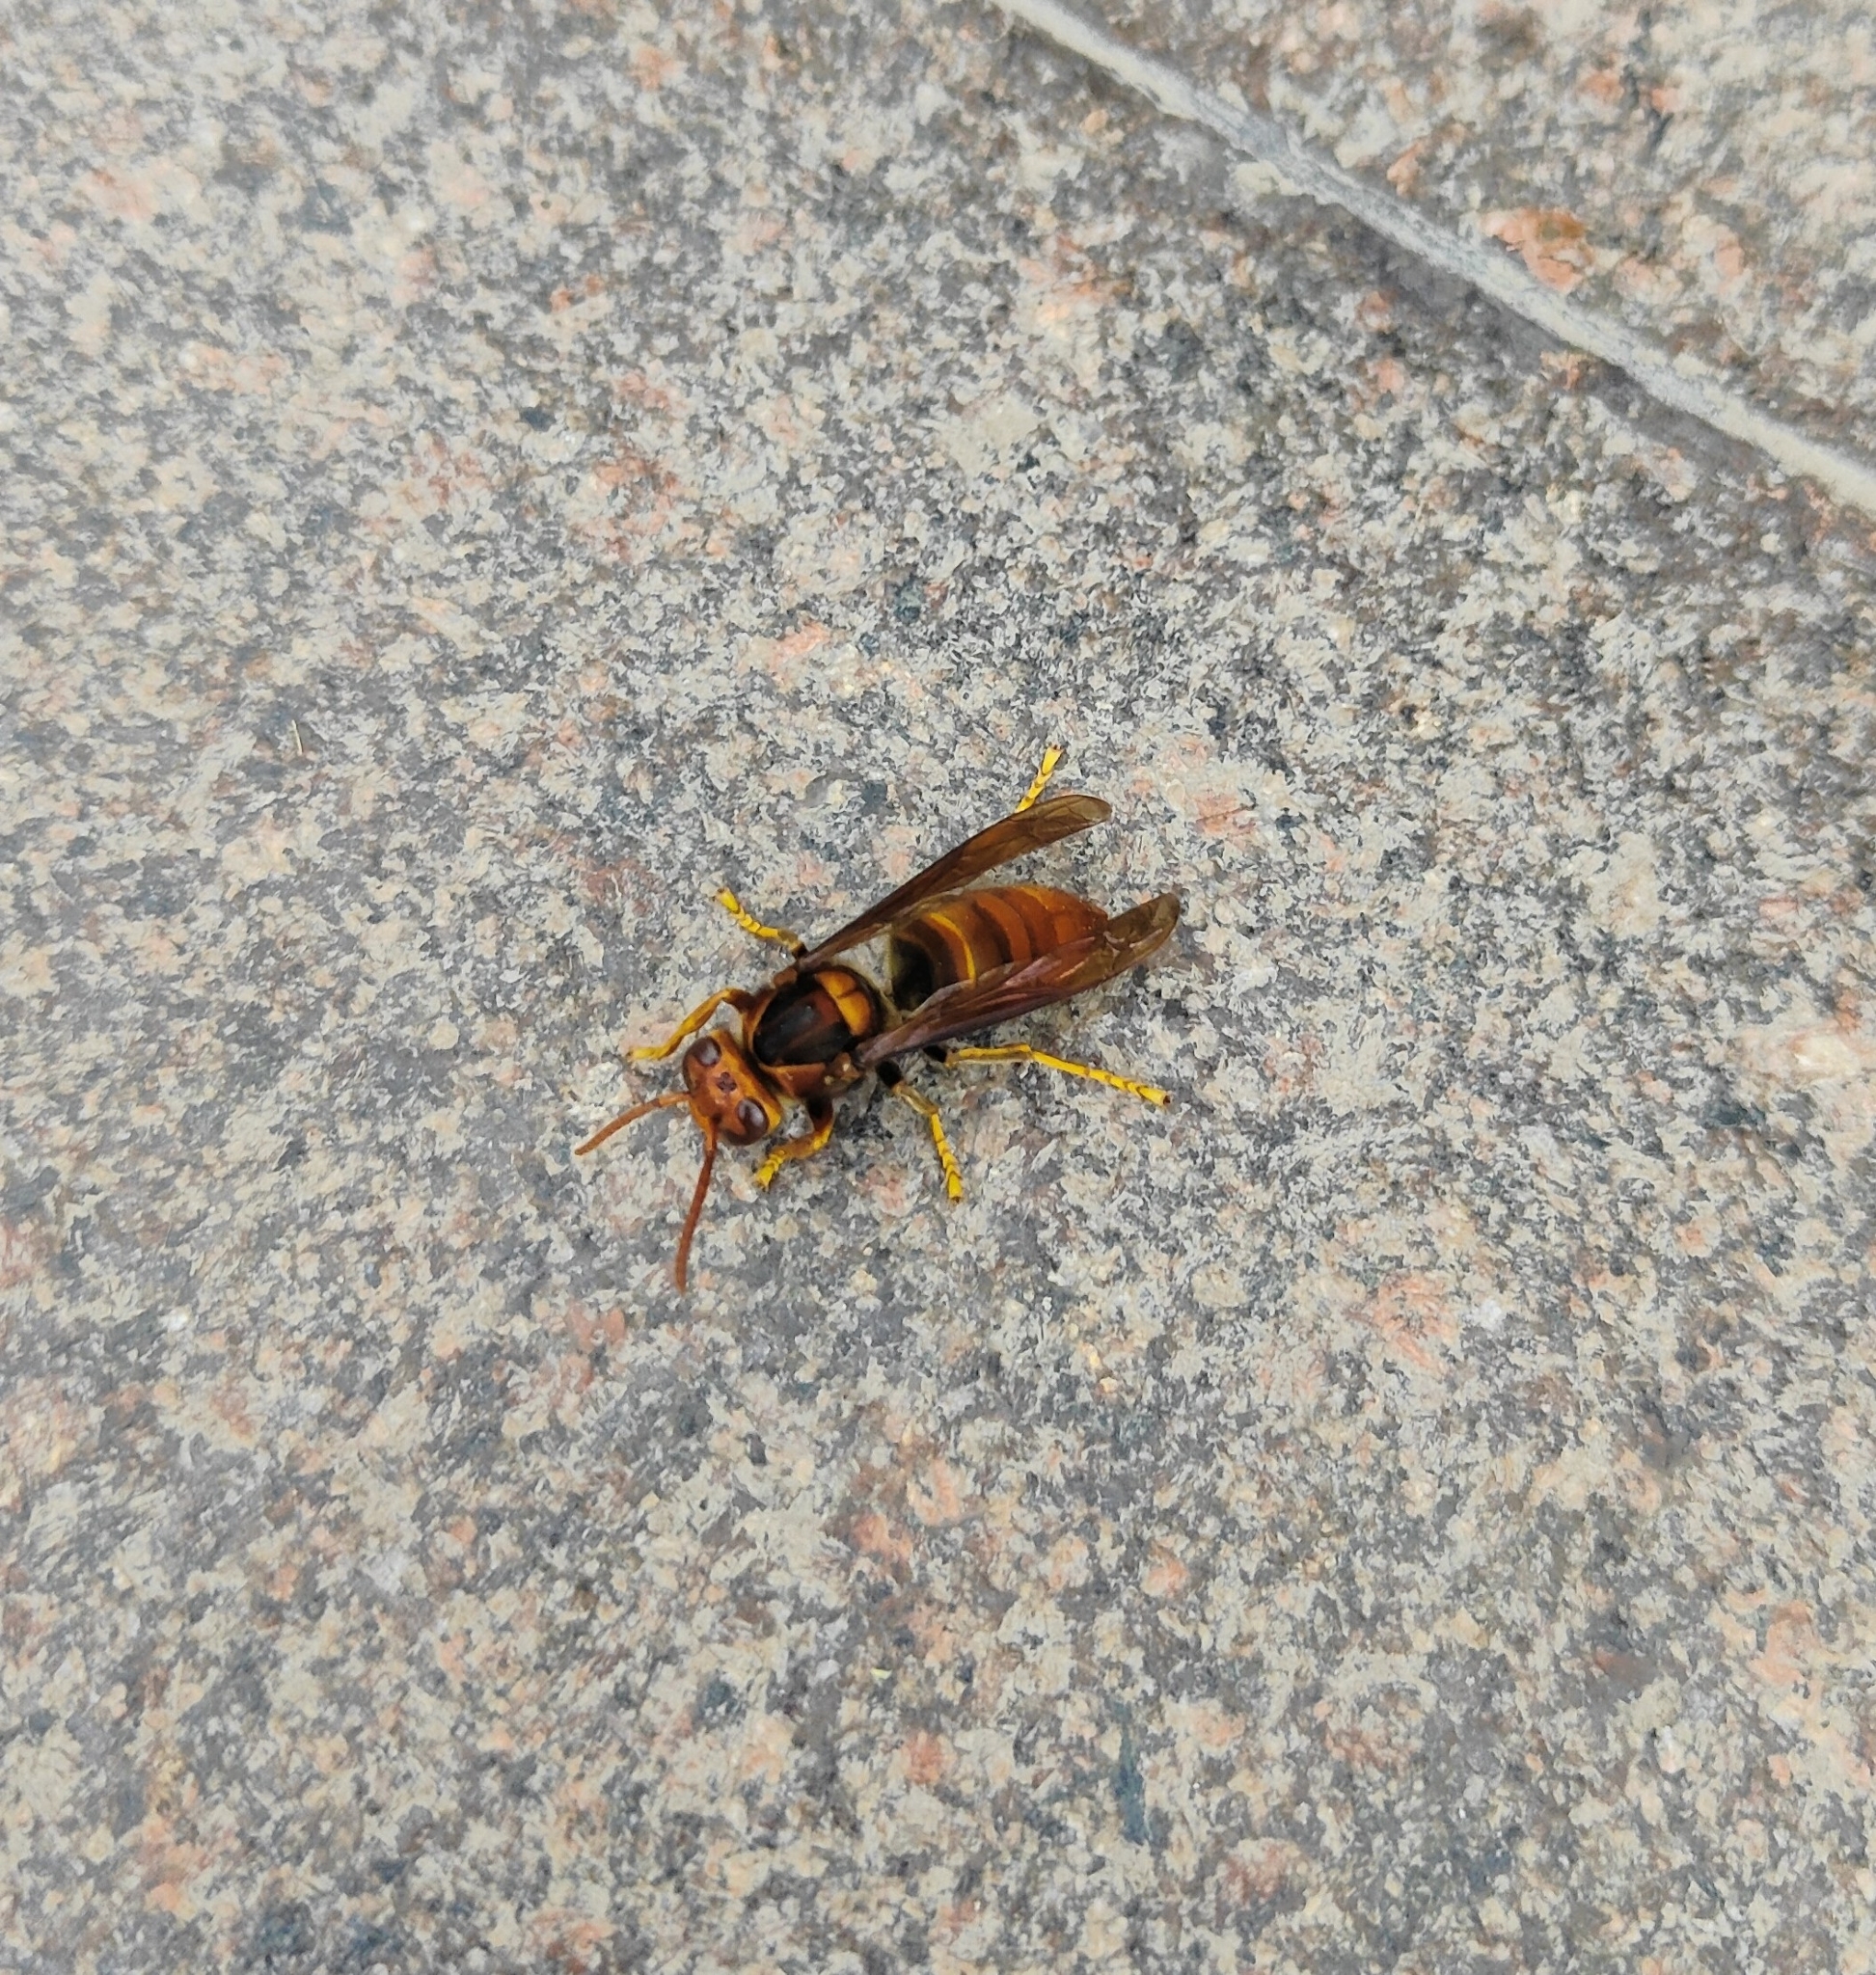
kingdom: Animalia
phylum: Arthropoda
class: Insecta
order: Hymenoptera
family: Vespidae
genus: Vespa
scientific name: Vespa velutina
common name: Asian hornet
